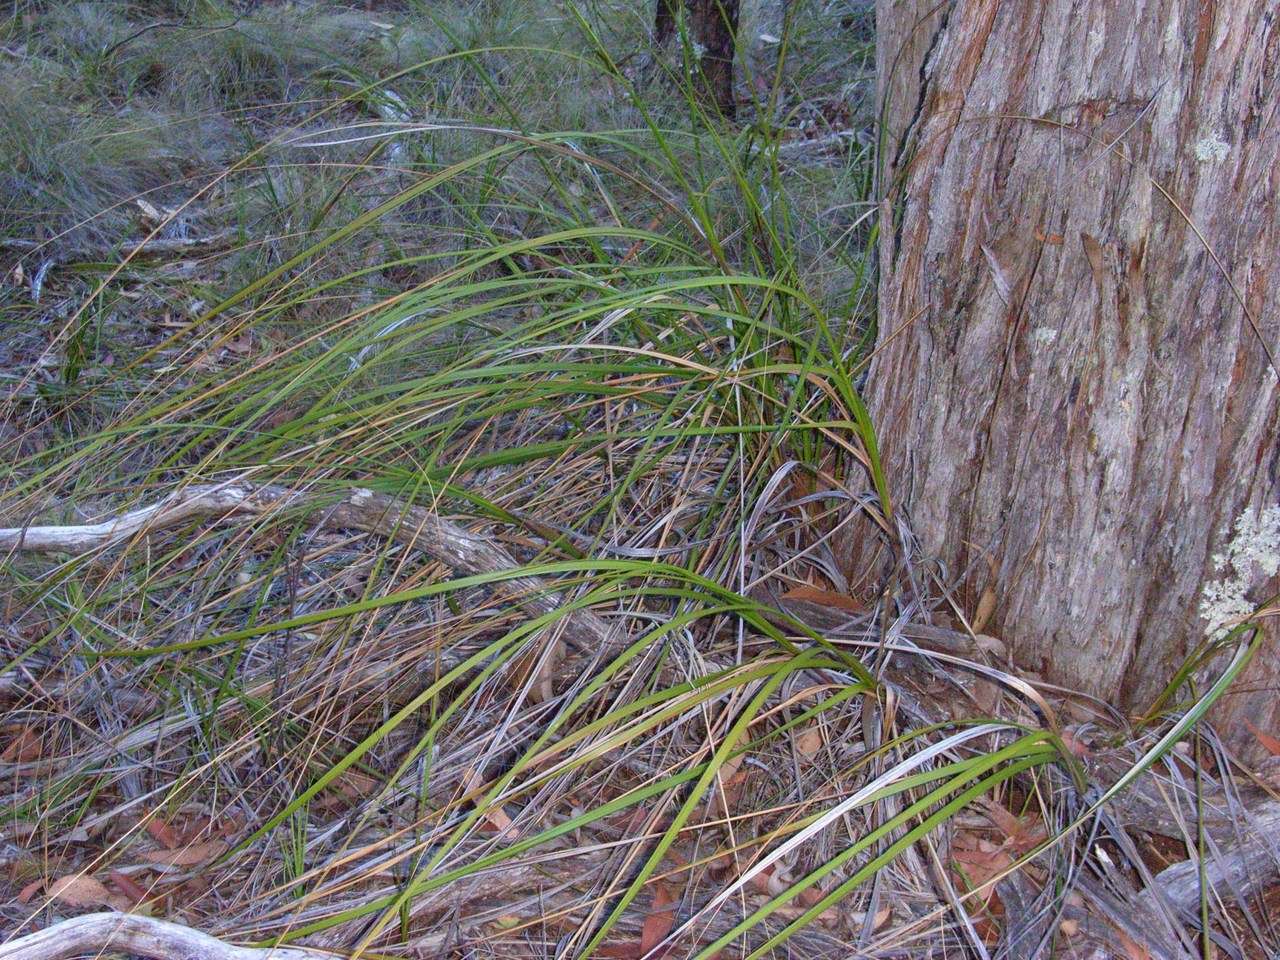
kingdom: Plantae
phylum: Tracheophyta
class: Liliopsida
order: Poales
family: Cyperaceae
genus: Gahnia
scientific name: Gahnia radula
